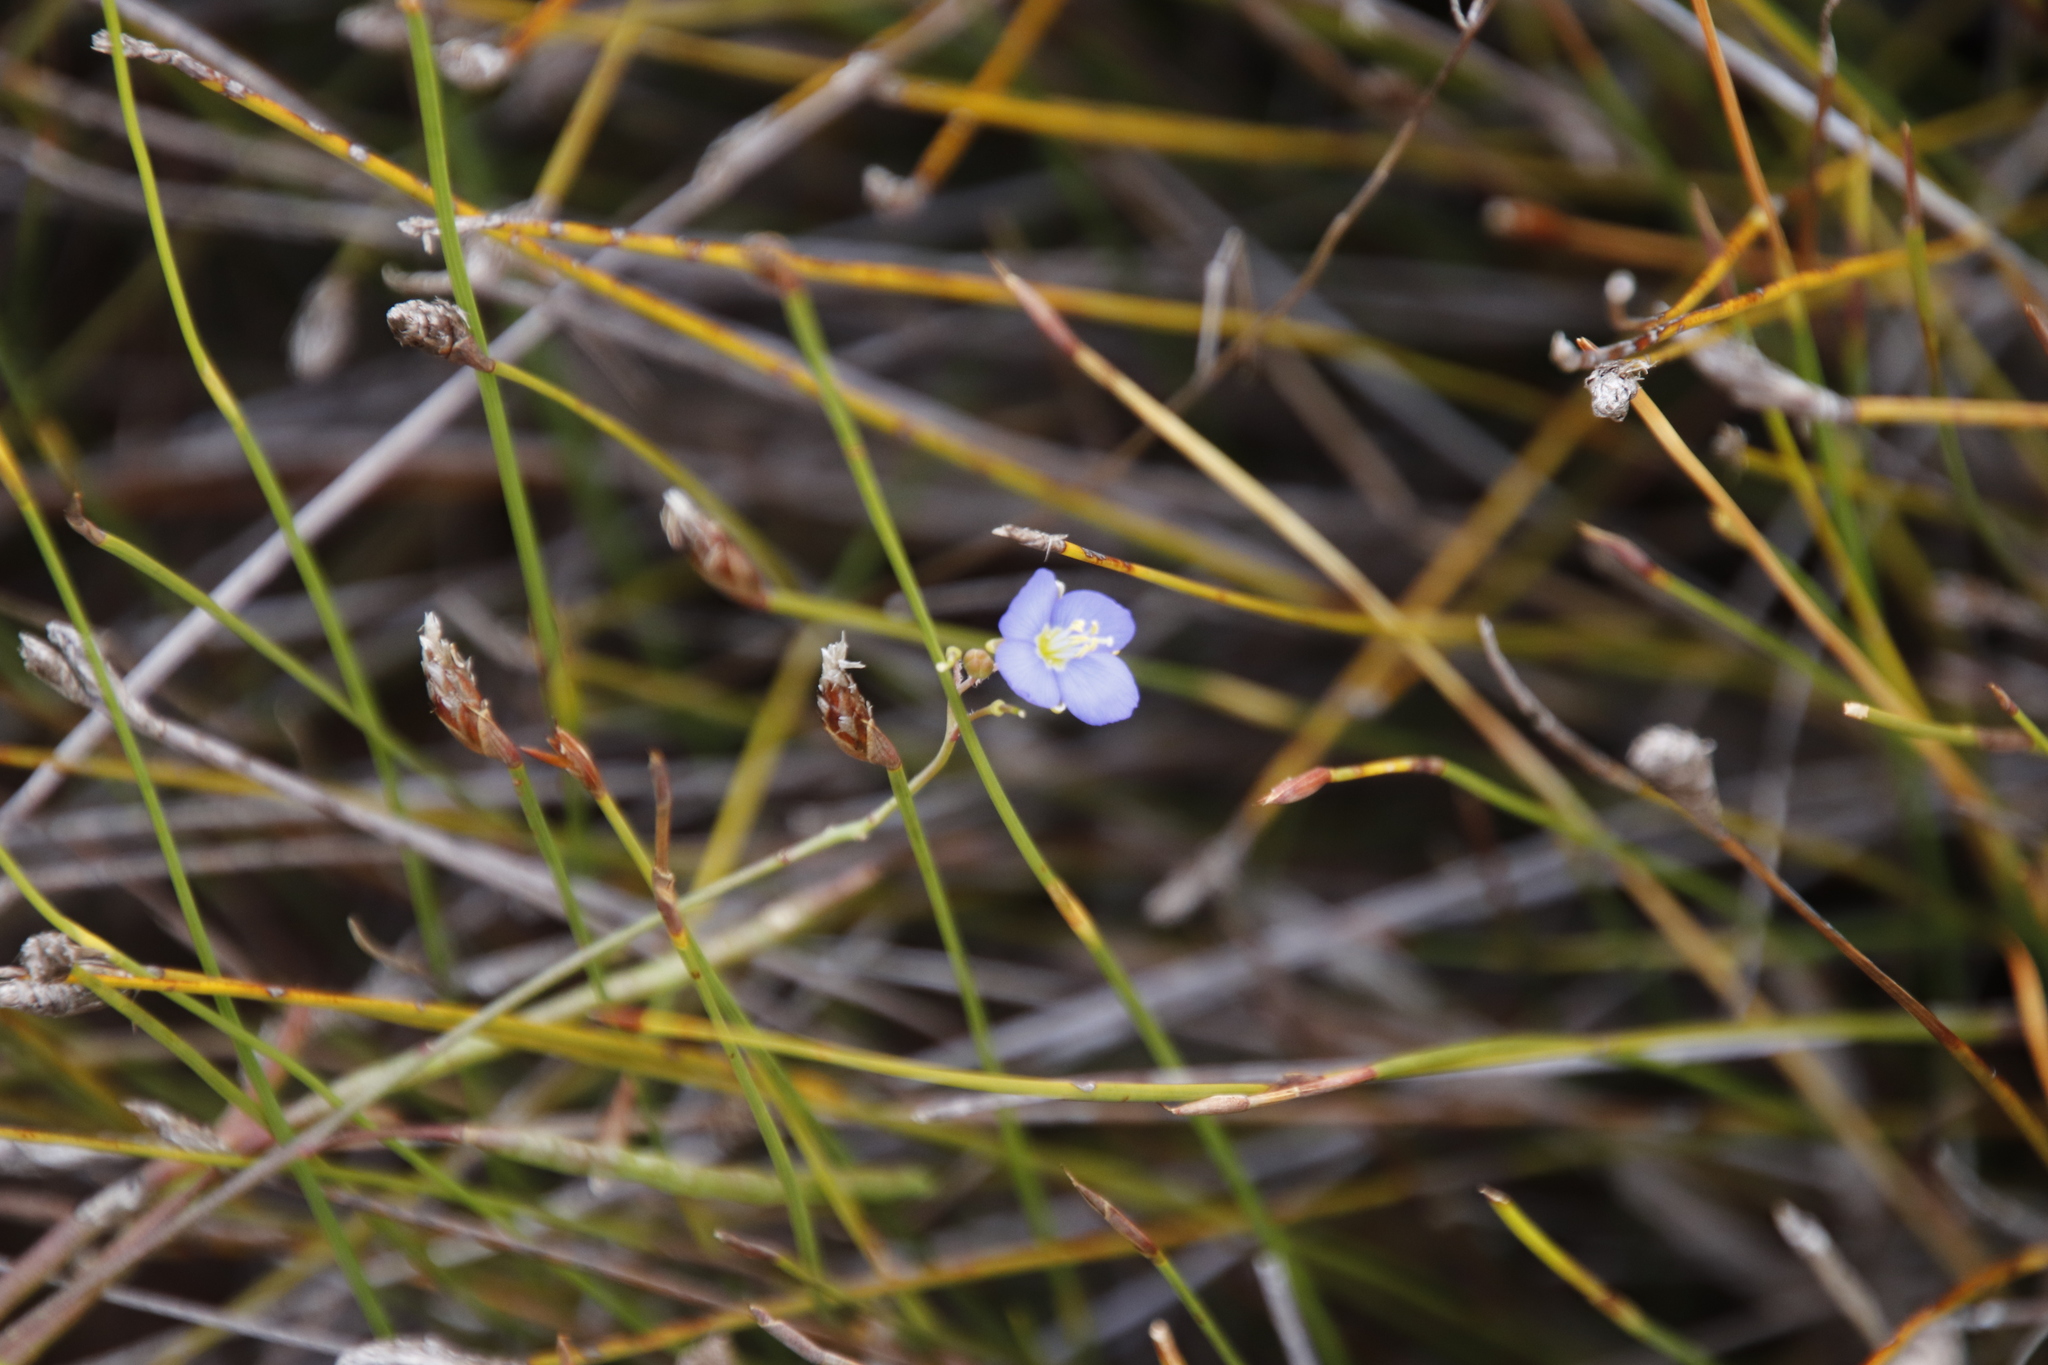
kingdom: Plantae
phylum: Tracheophyta
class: Magnoliopsida
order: Brassicales
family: Brassicaceae
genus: Heliophila
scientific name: Heliophila linearis
